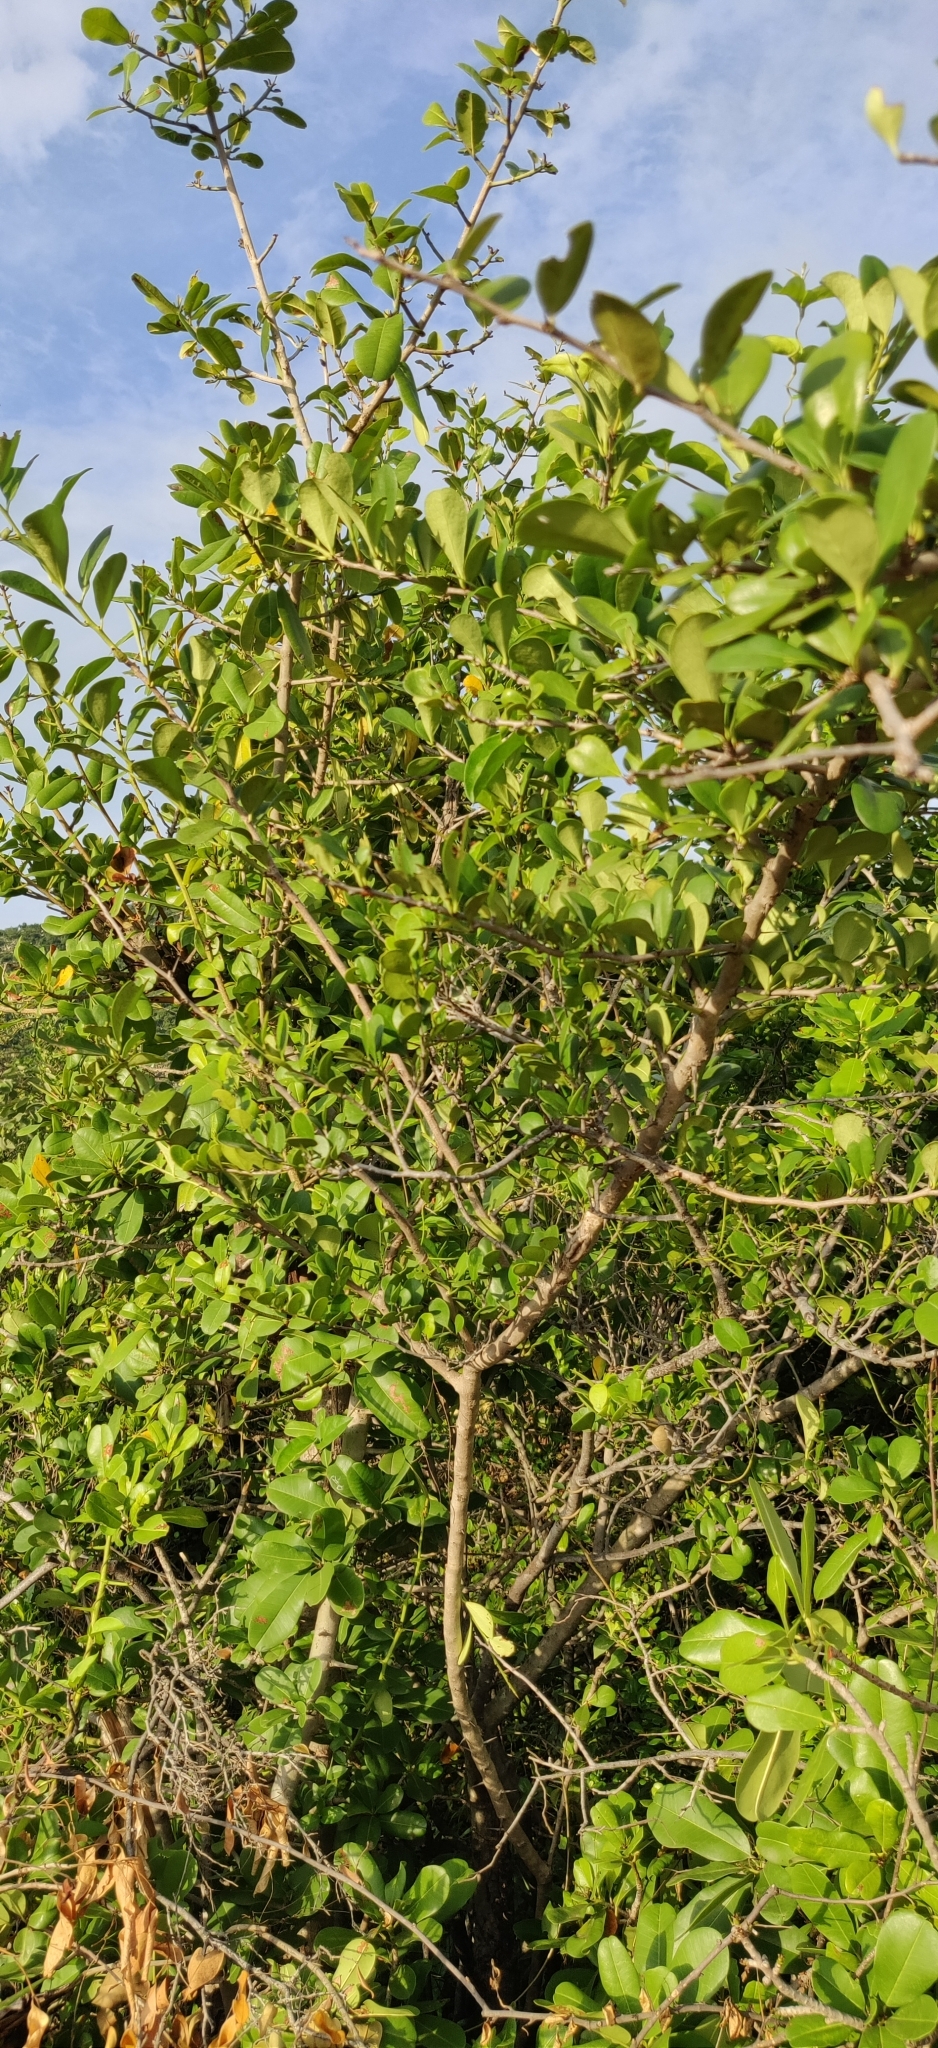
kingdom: Plantae
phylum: Tracheophyta
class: Magnoliopsida
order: Ericales
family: Ebenaceae
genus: Diospyros
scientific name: Diospyros ferrea
